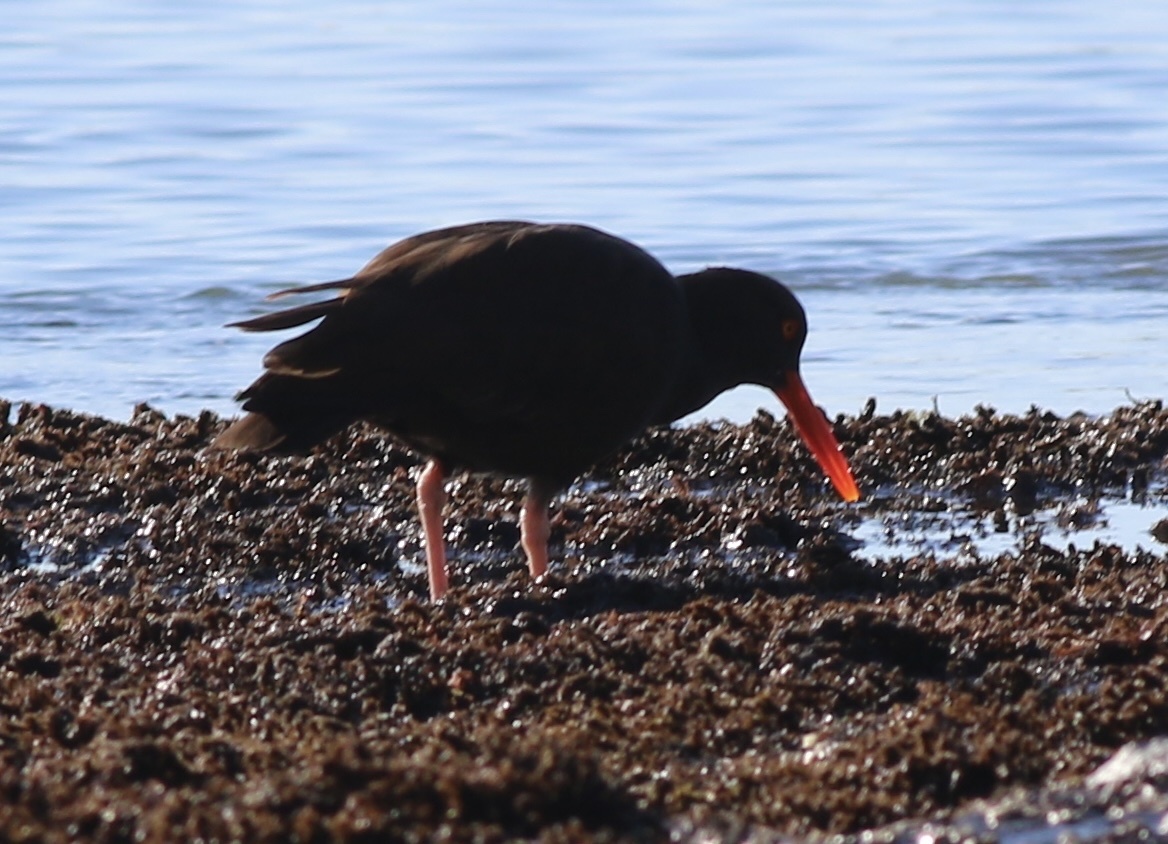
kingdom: Animalia
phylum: Chordata
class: Aves
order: Charadriiformes
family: Haematopodidae
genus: Haematopus
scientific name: Haematopus bachmani
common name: Black oystercatcher
